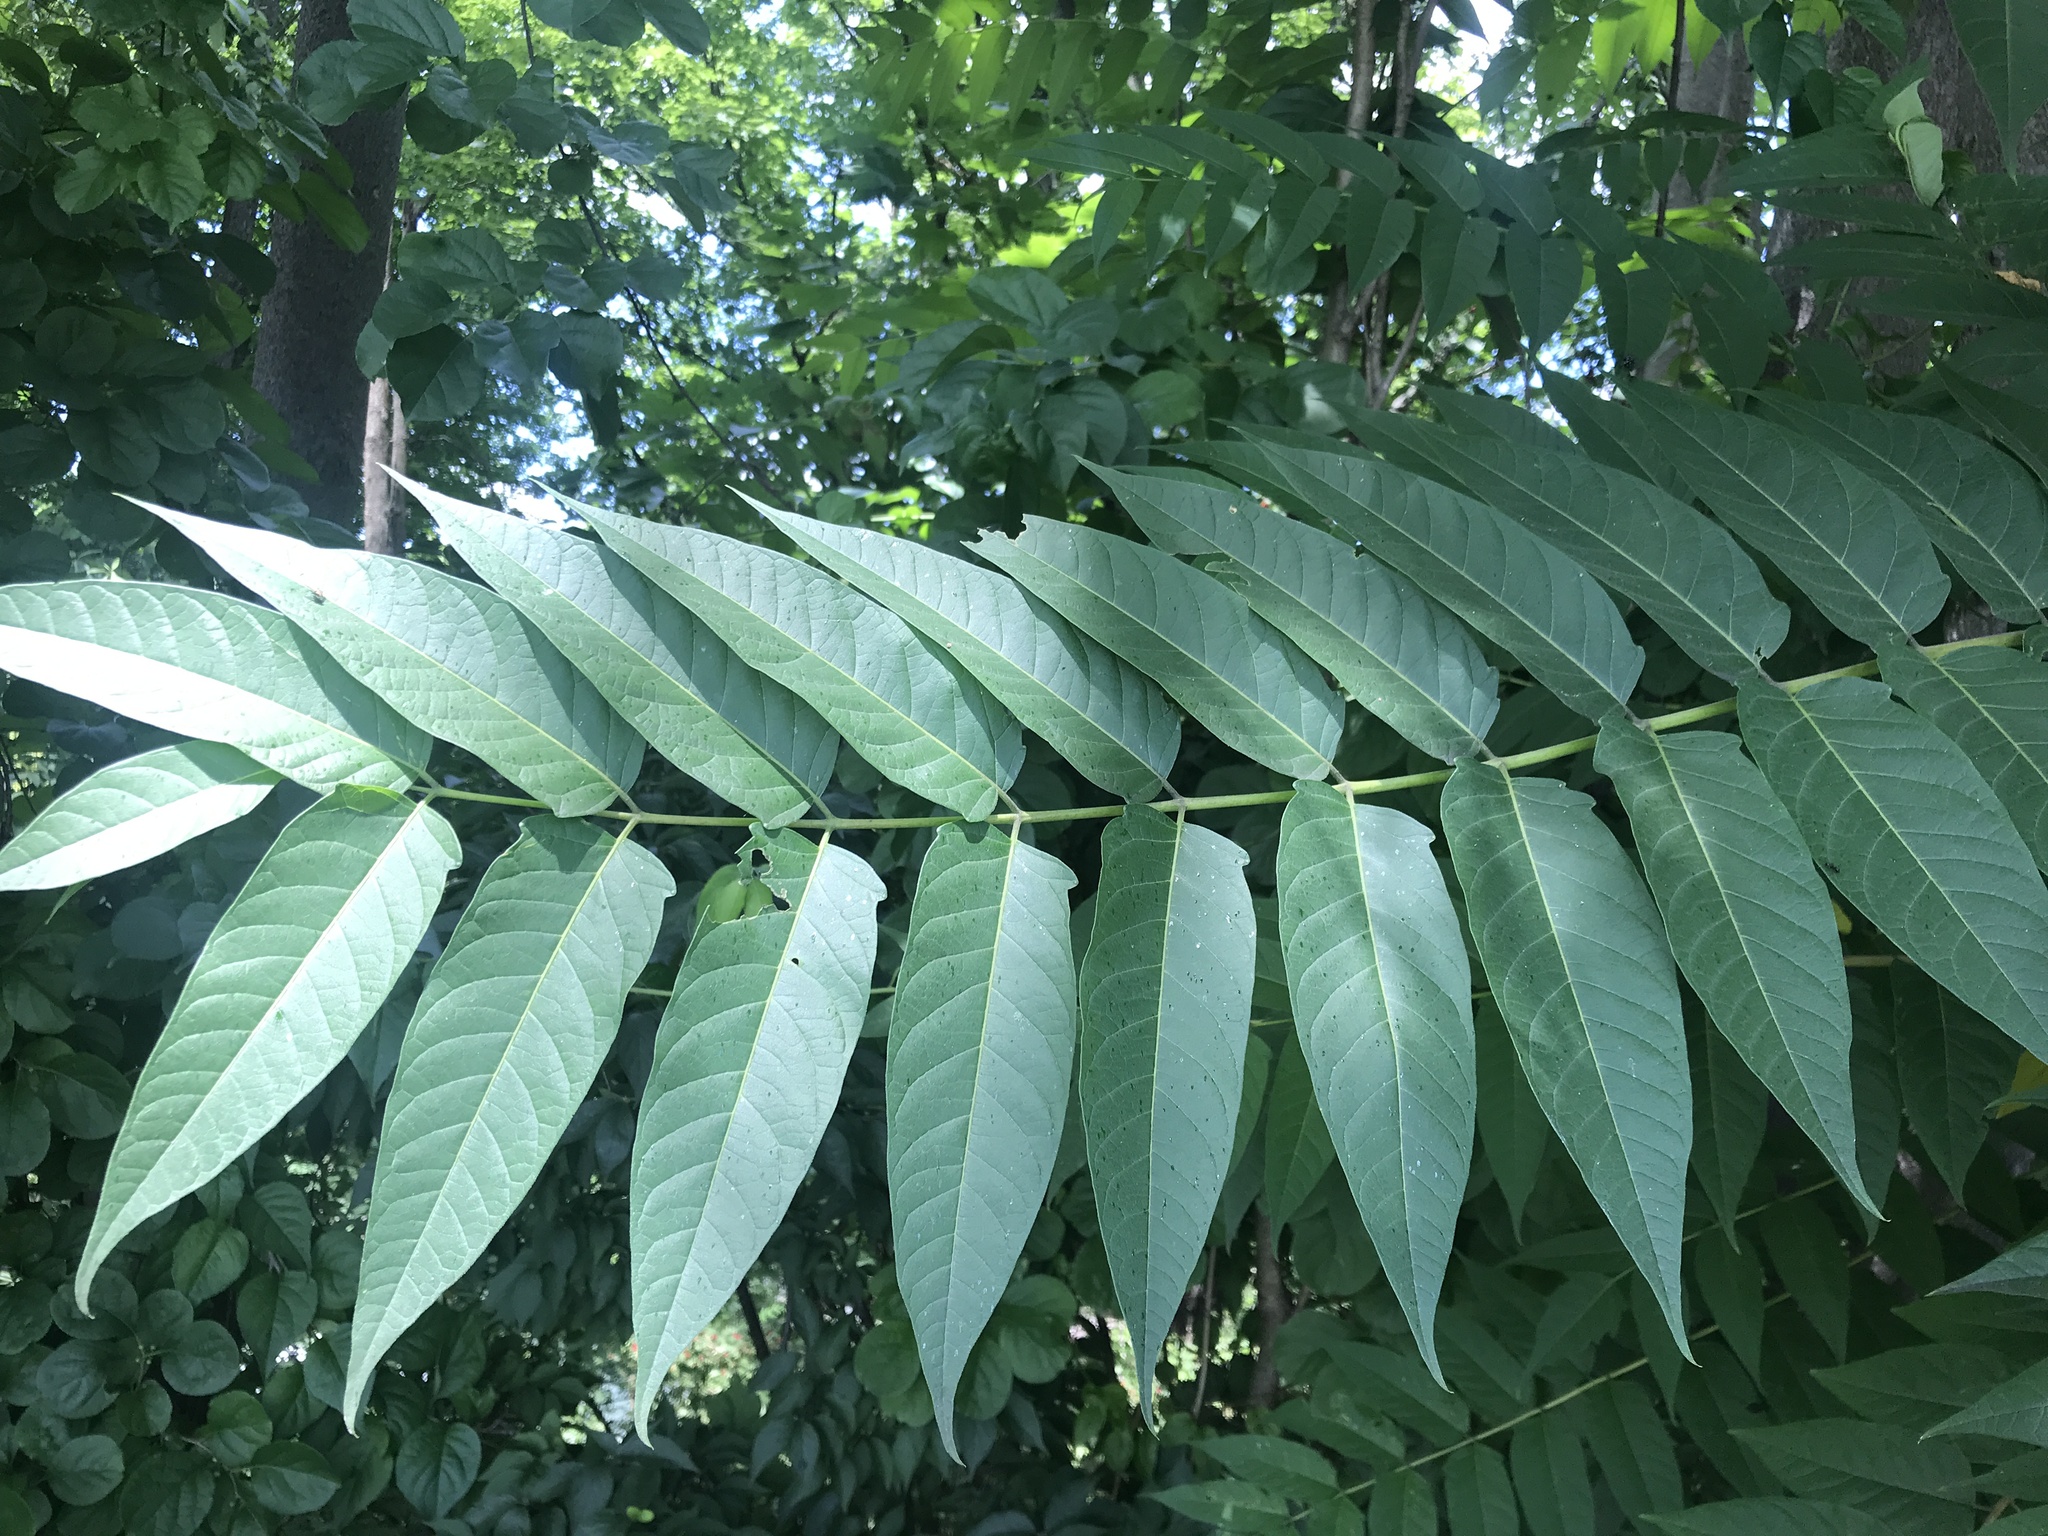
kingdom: Plantae
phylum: Tracheophyta
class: Magnoliopsida
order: Sapindales
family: Simaroubaceae
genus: Ailanthus
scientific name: Ailanthus altissima
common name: Tree-of-heaven
